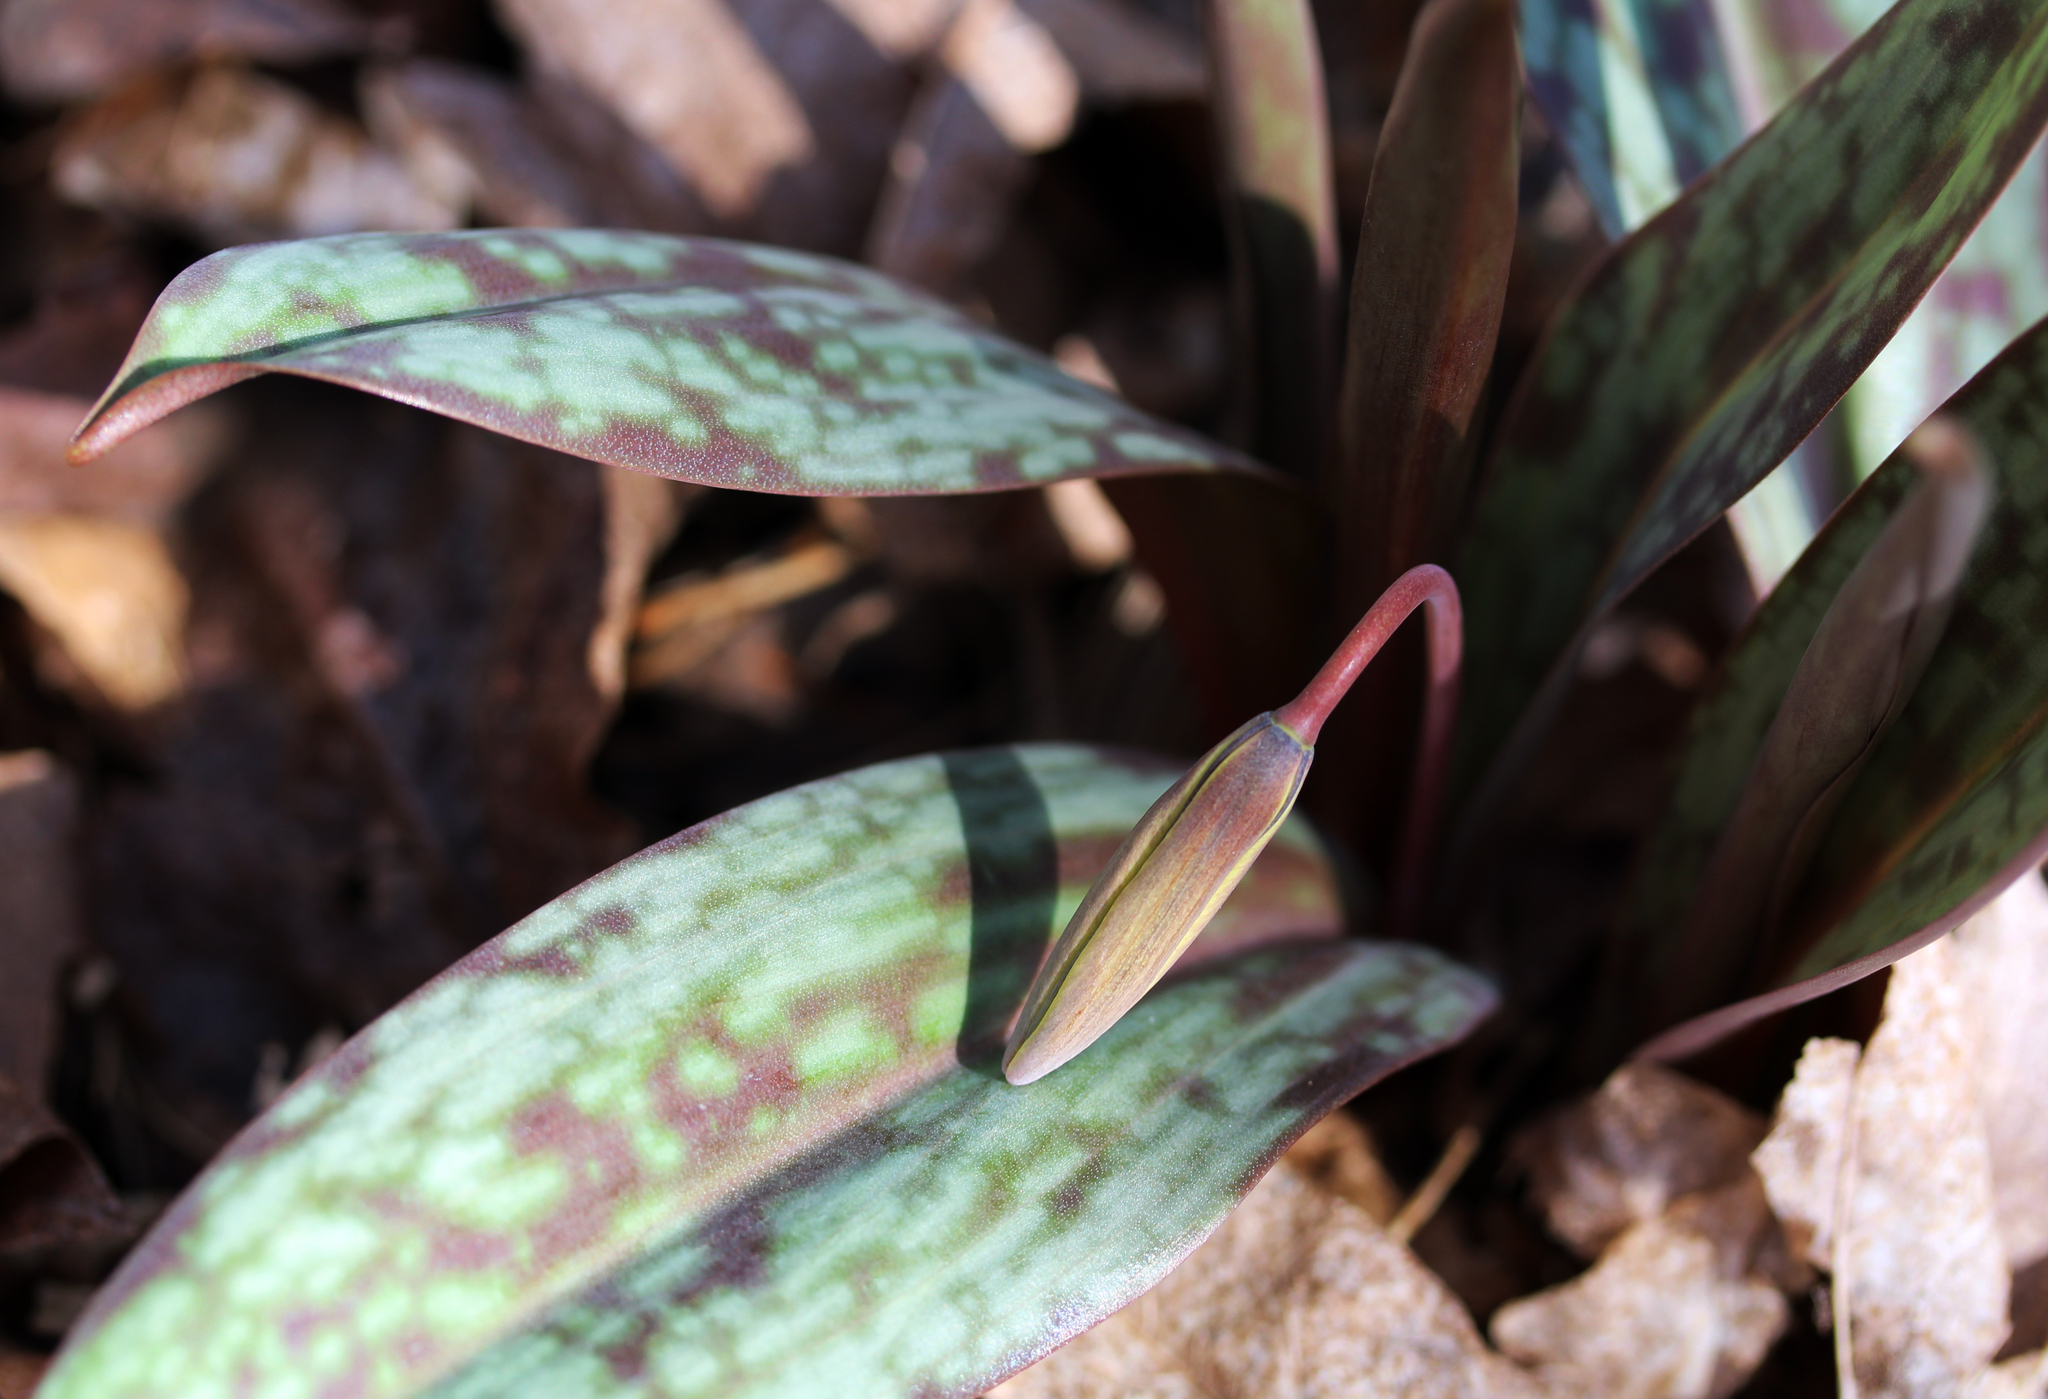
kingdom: Plantae
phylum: Tracheophyta
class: Liliopsida
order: Liliales
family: Liliaceae
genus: Erythronium
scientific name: Erythronium americanum
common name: Yellow adder's-tongue
